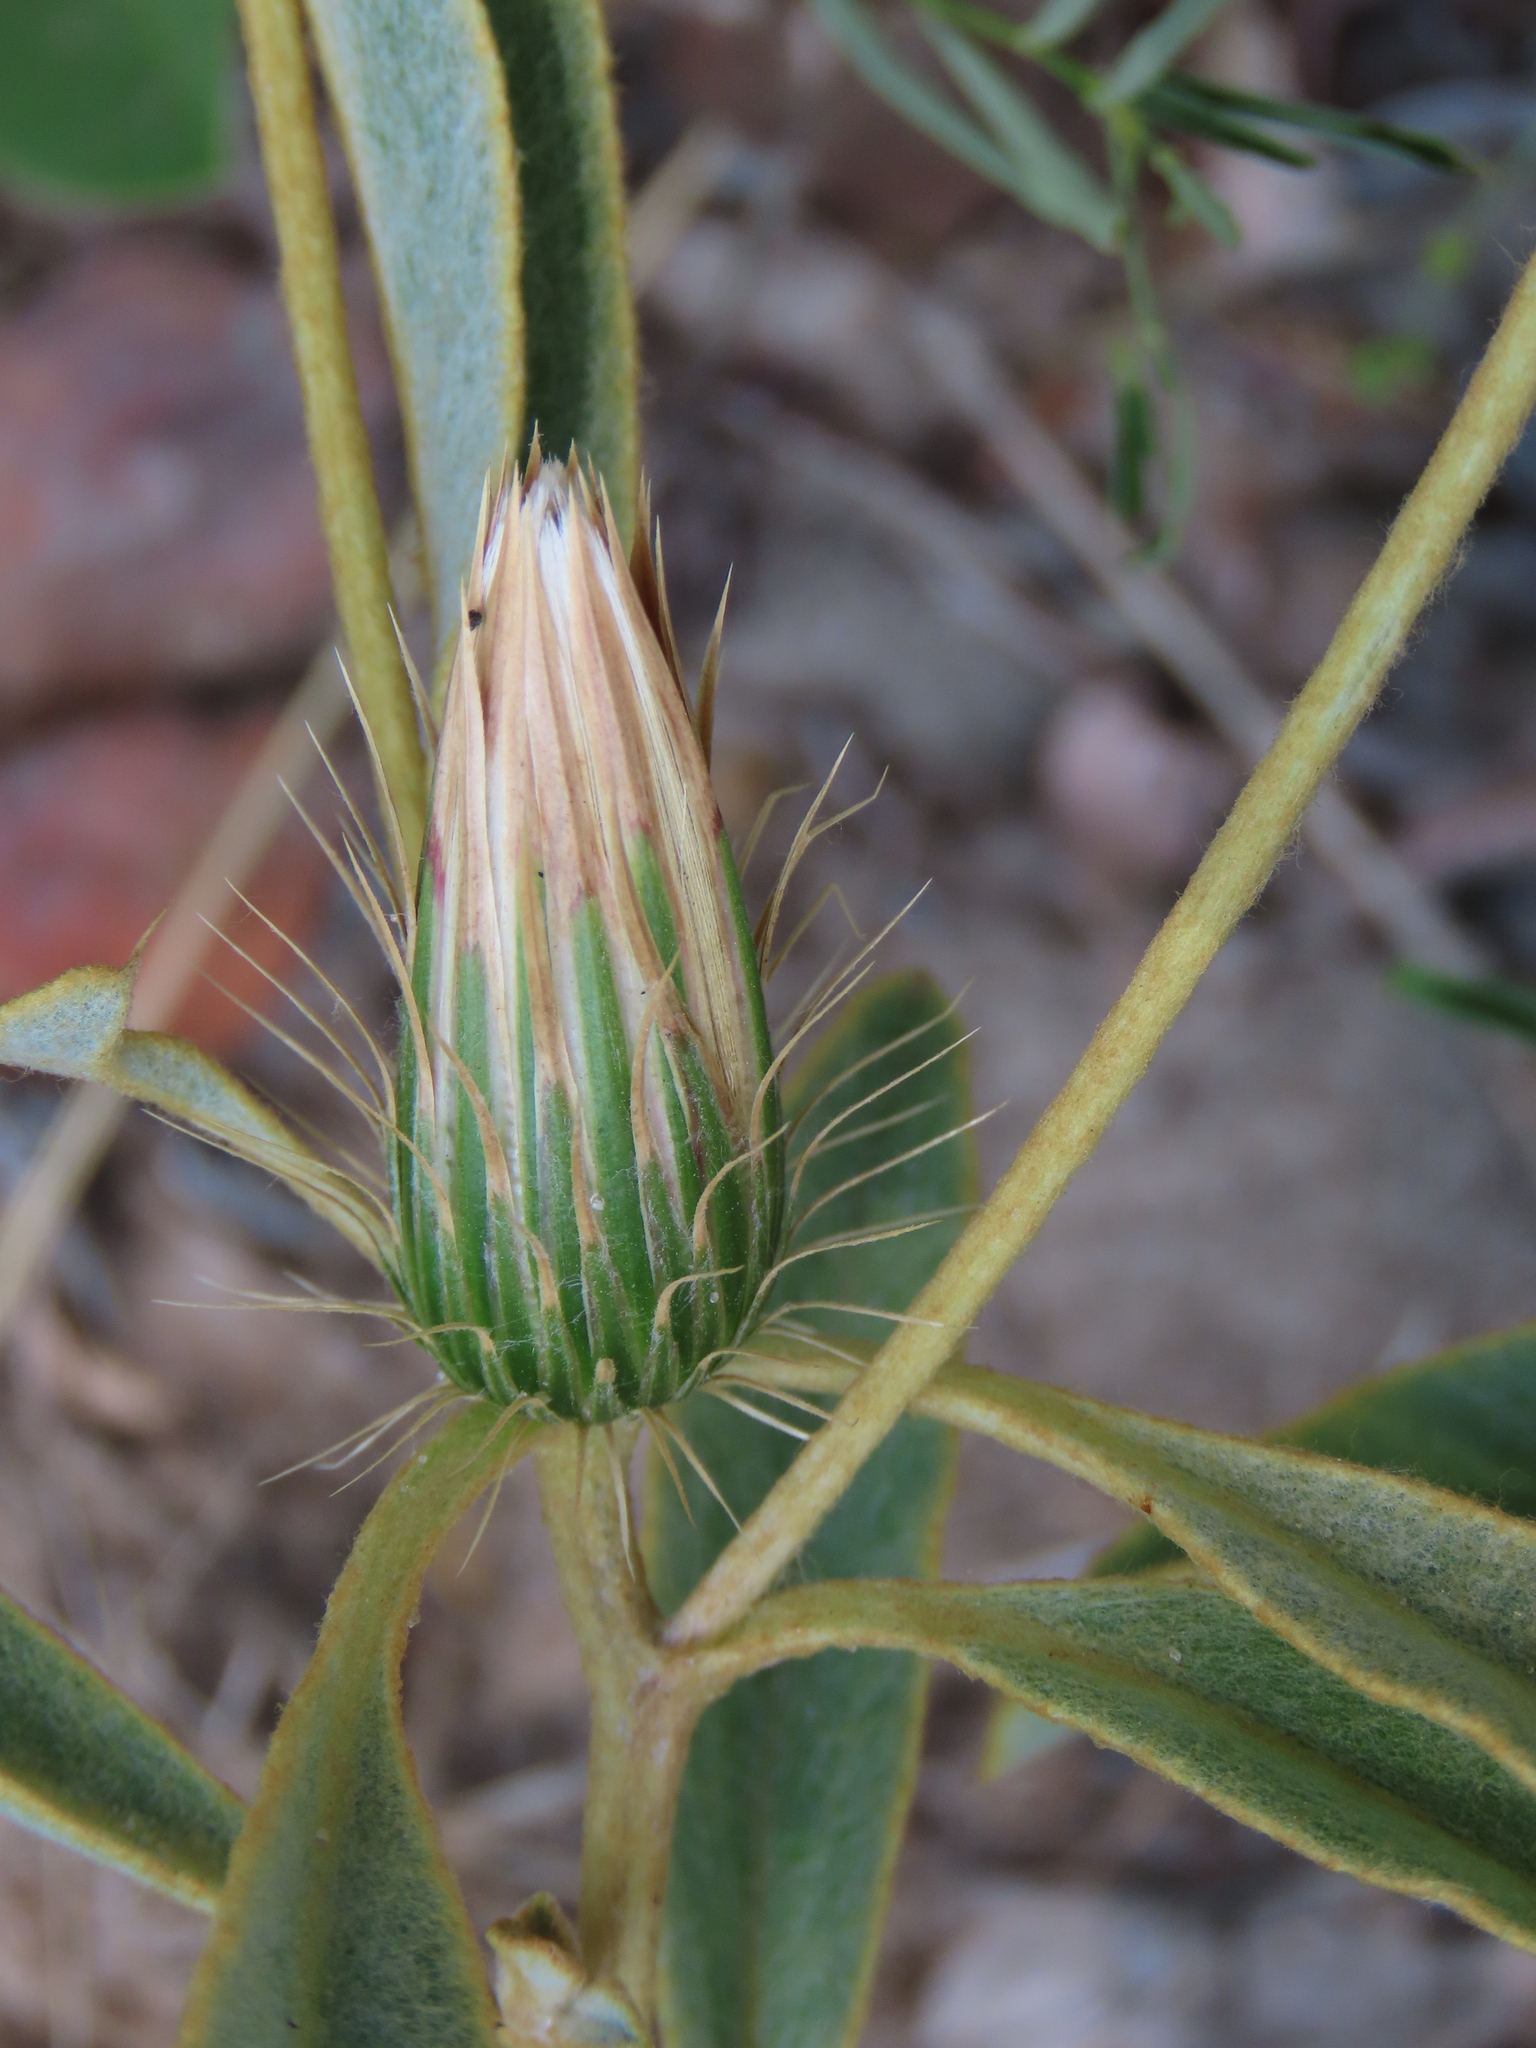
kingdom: Plantae
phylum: Tracheophyta
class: Magnoliopsida
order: Asterales
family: Asteraceae
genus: Dicoma
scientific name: Dicoma schinzii
